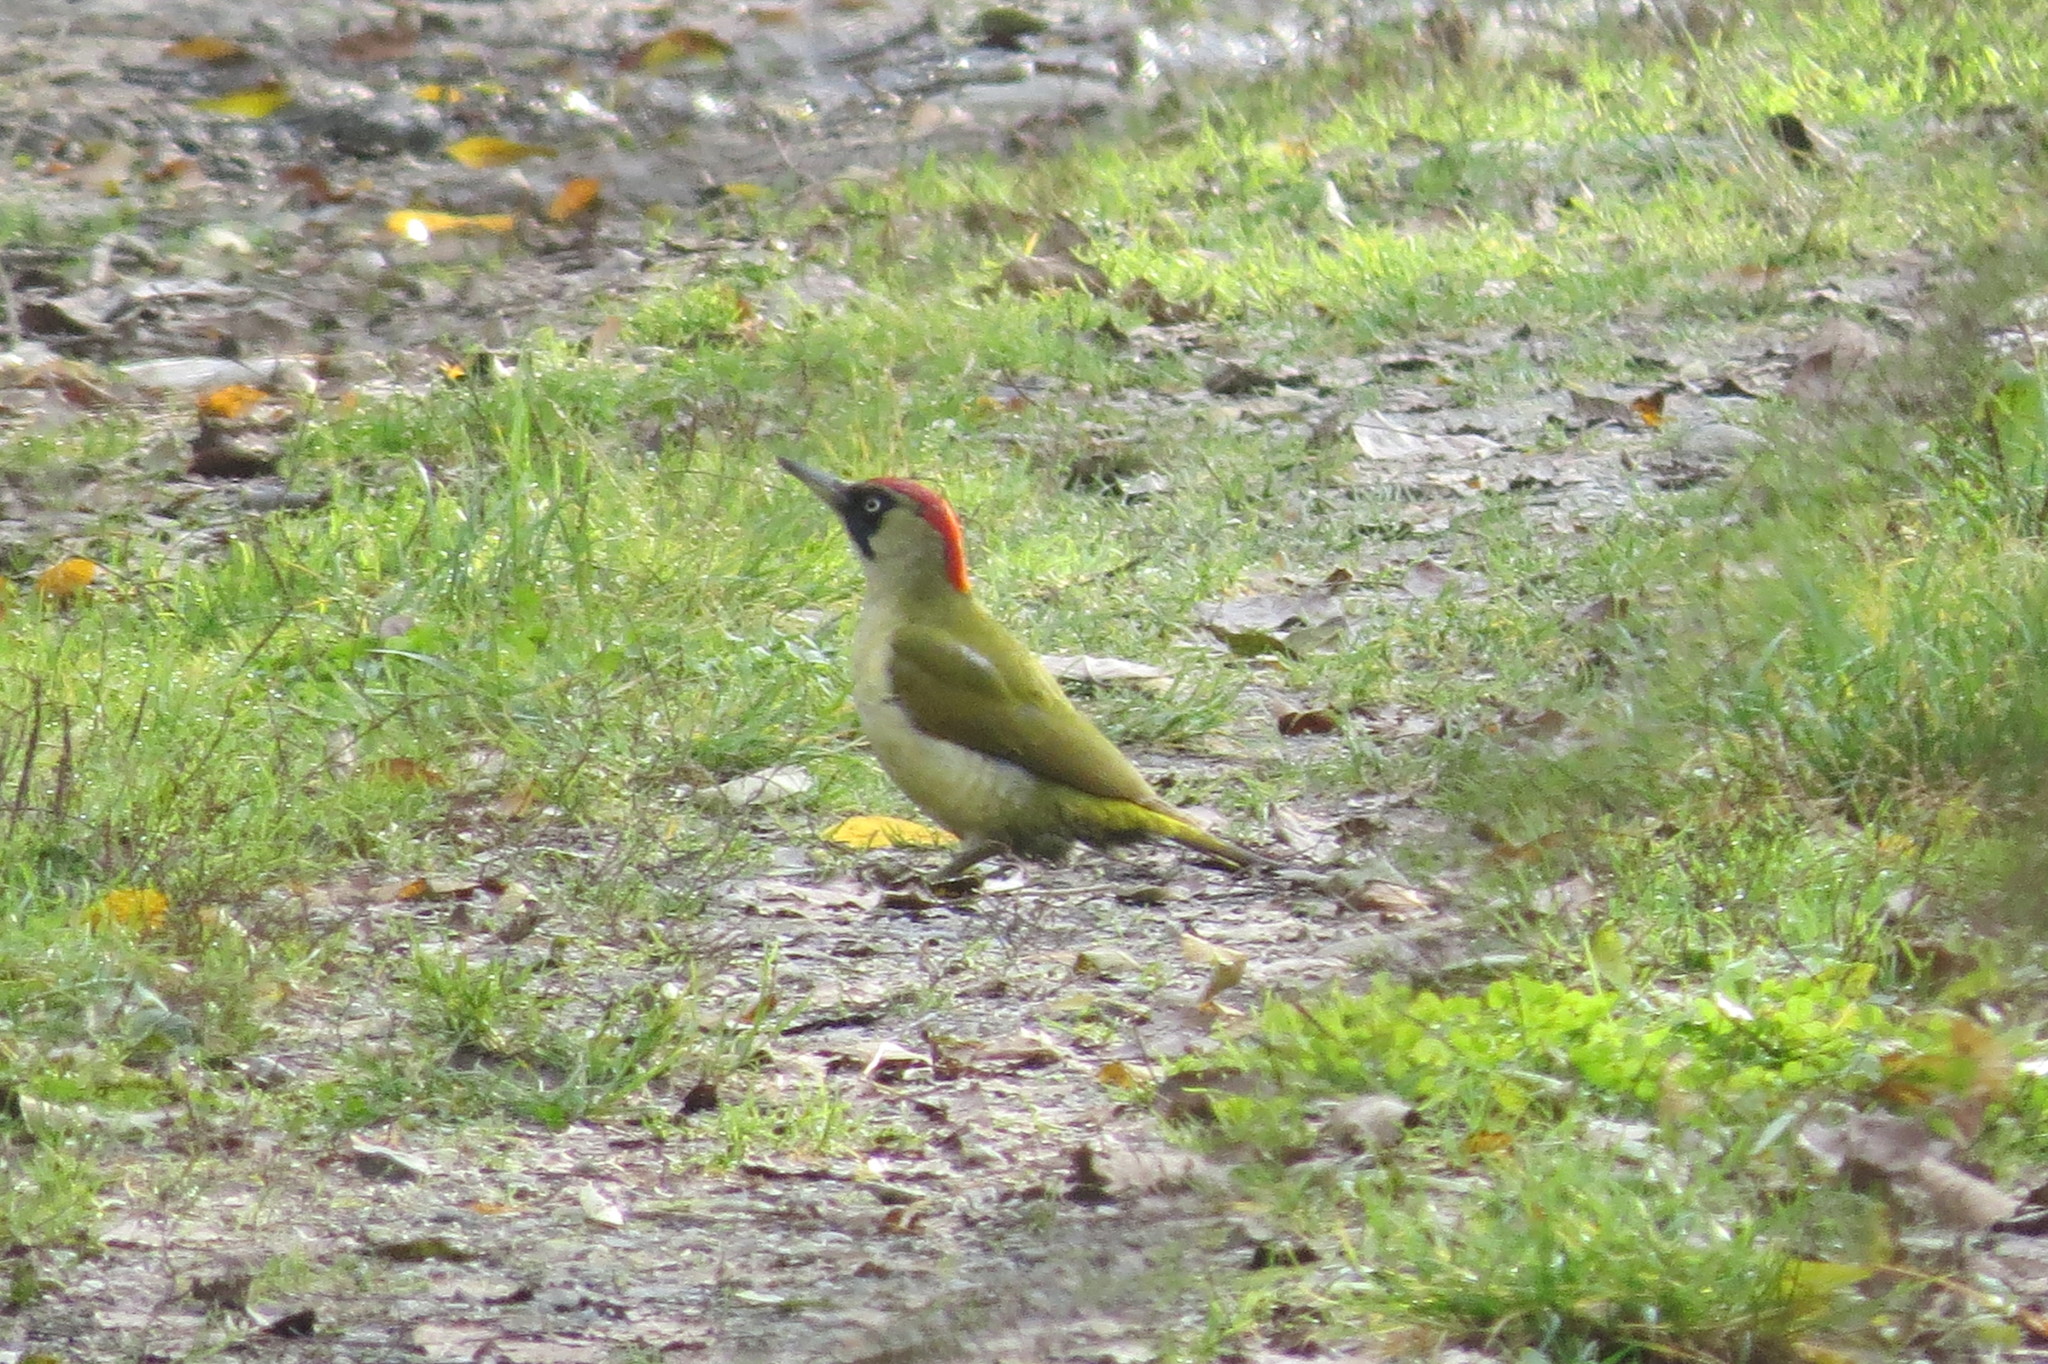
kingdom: Animalia
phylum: Chordata
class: Aves
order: Piciformes
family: Picidae
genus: Picus
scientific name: Picus viridis
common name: European green woodpecker
